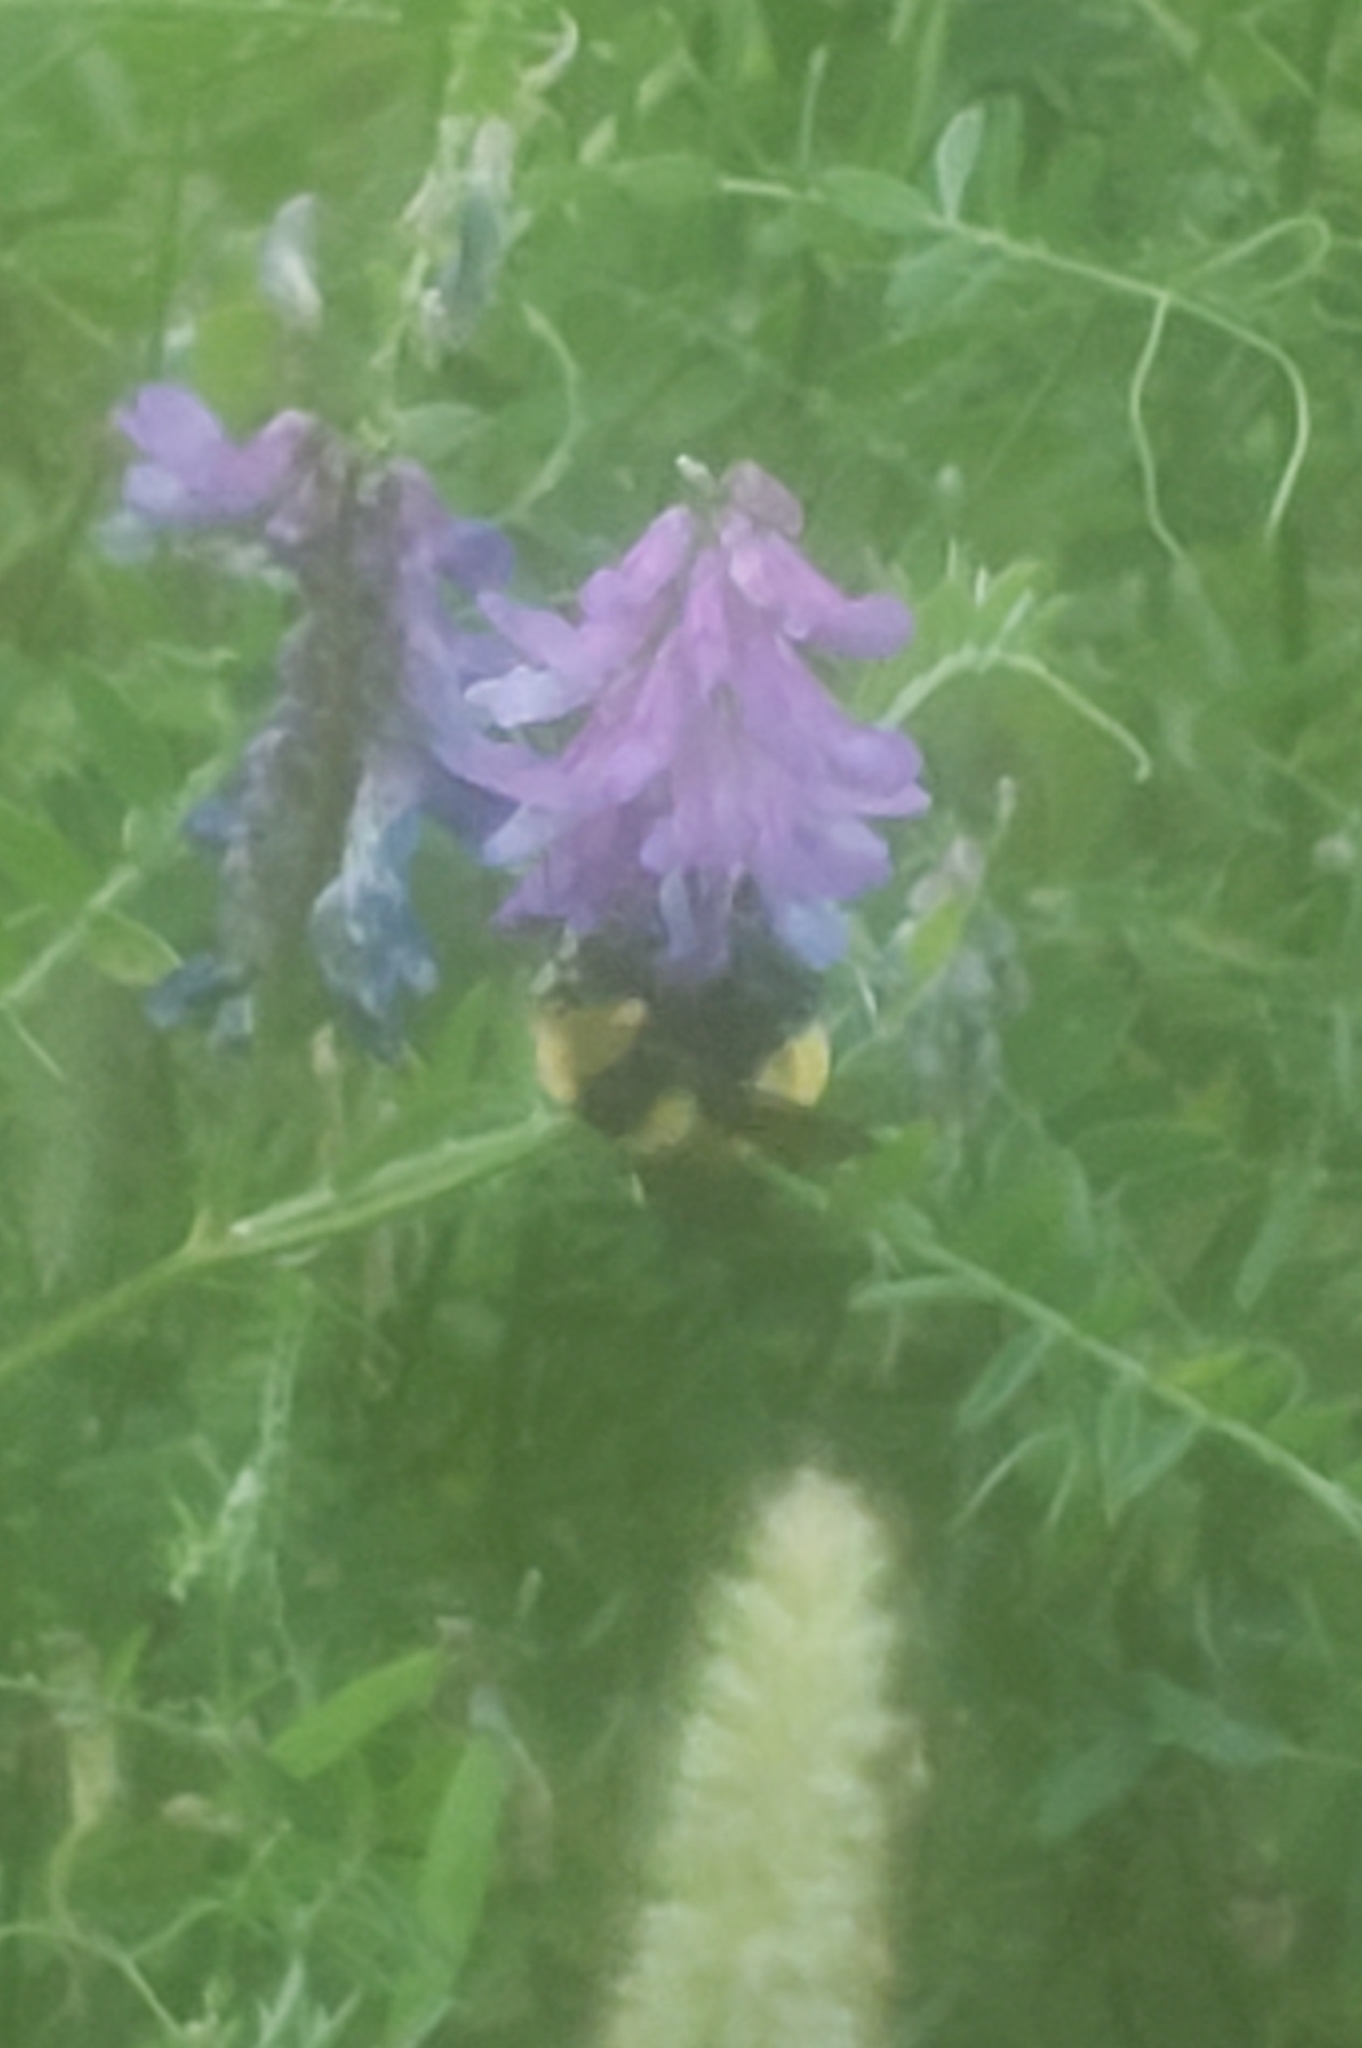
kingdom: Animalia
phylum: Arthropoda
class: Insecta
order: Hymenoptera
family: Apidae
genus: Bombus
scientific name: Bombus borealis
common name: Northern amber bumble bee
